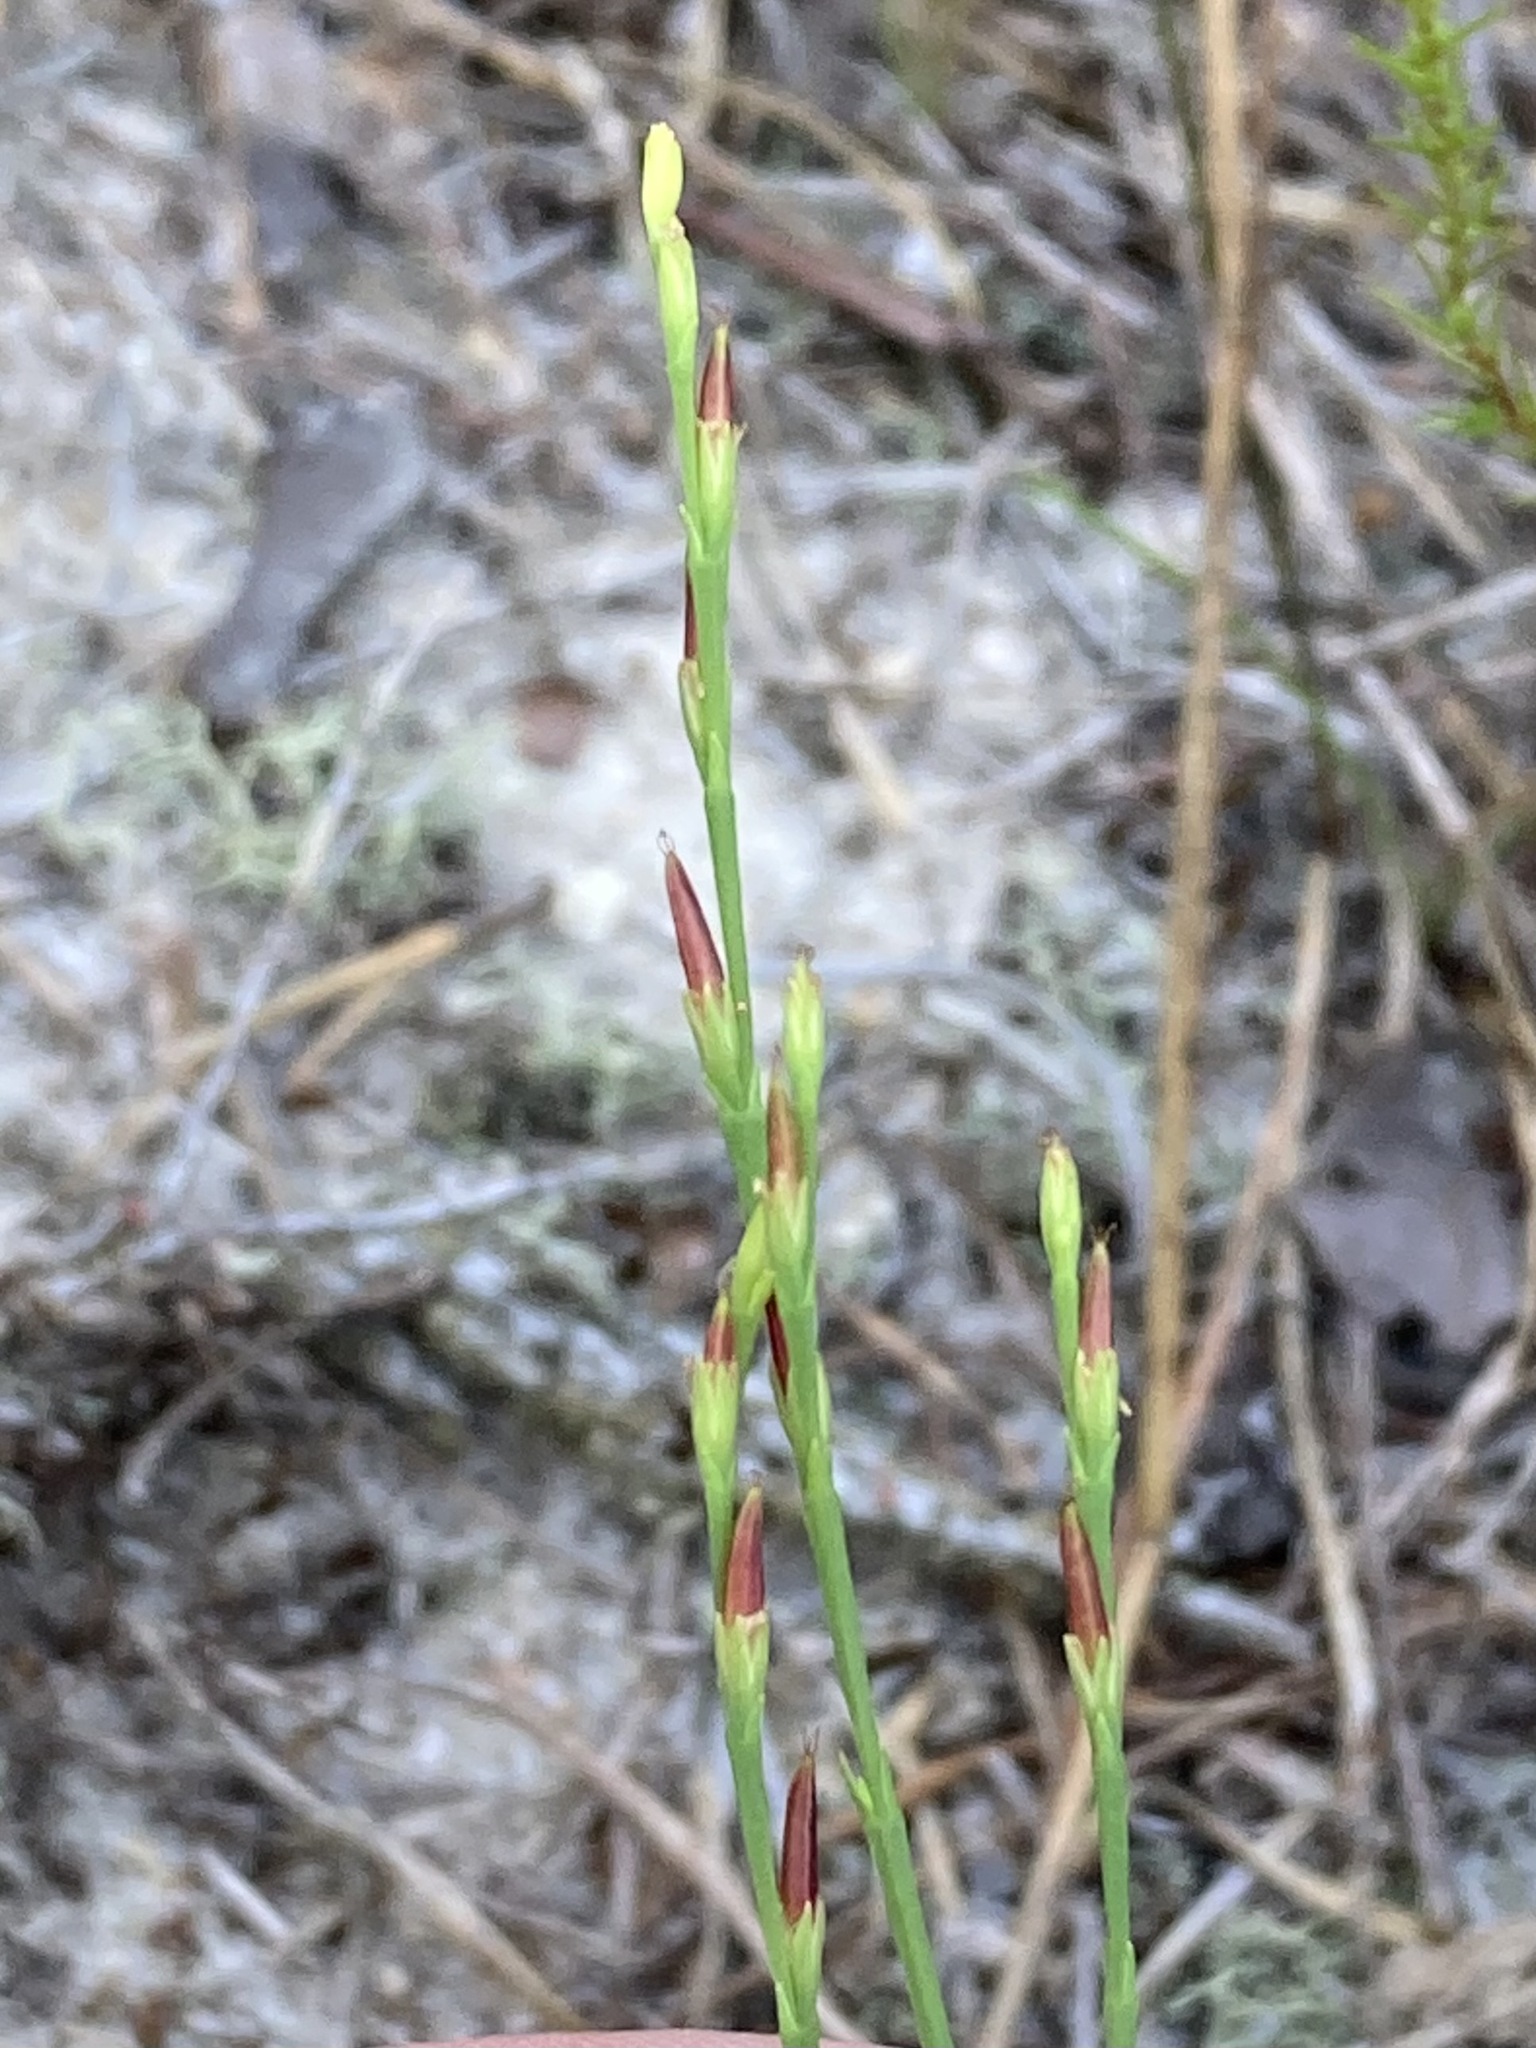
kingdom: Plantae
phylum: Tracheophyta
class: Magnoliopsida
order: Malpighiales
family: Hypericaceae
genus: Hypericum
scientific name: Hypericum gentianoides
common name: Gentian-leaved st. john's-wort
